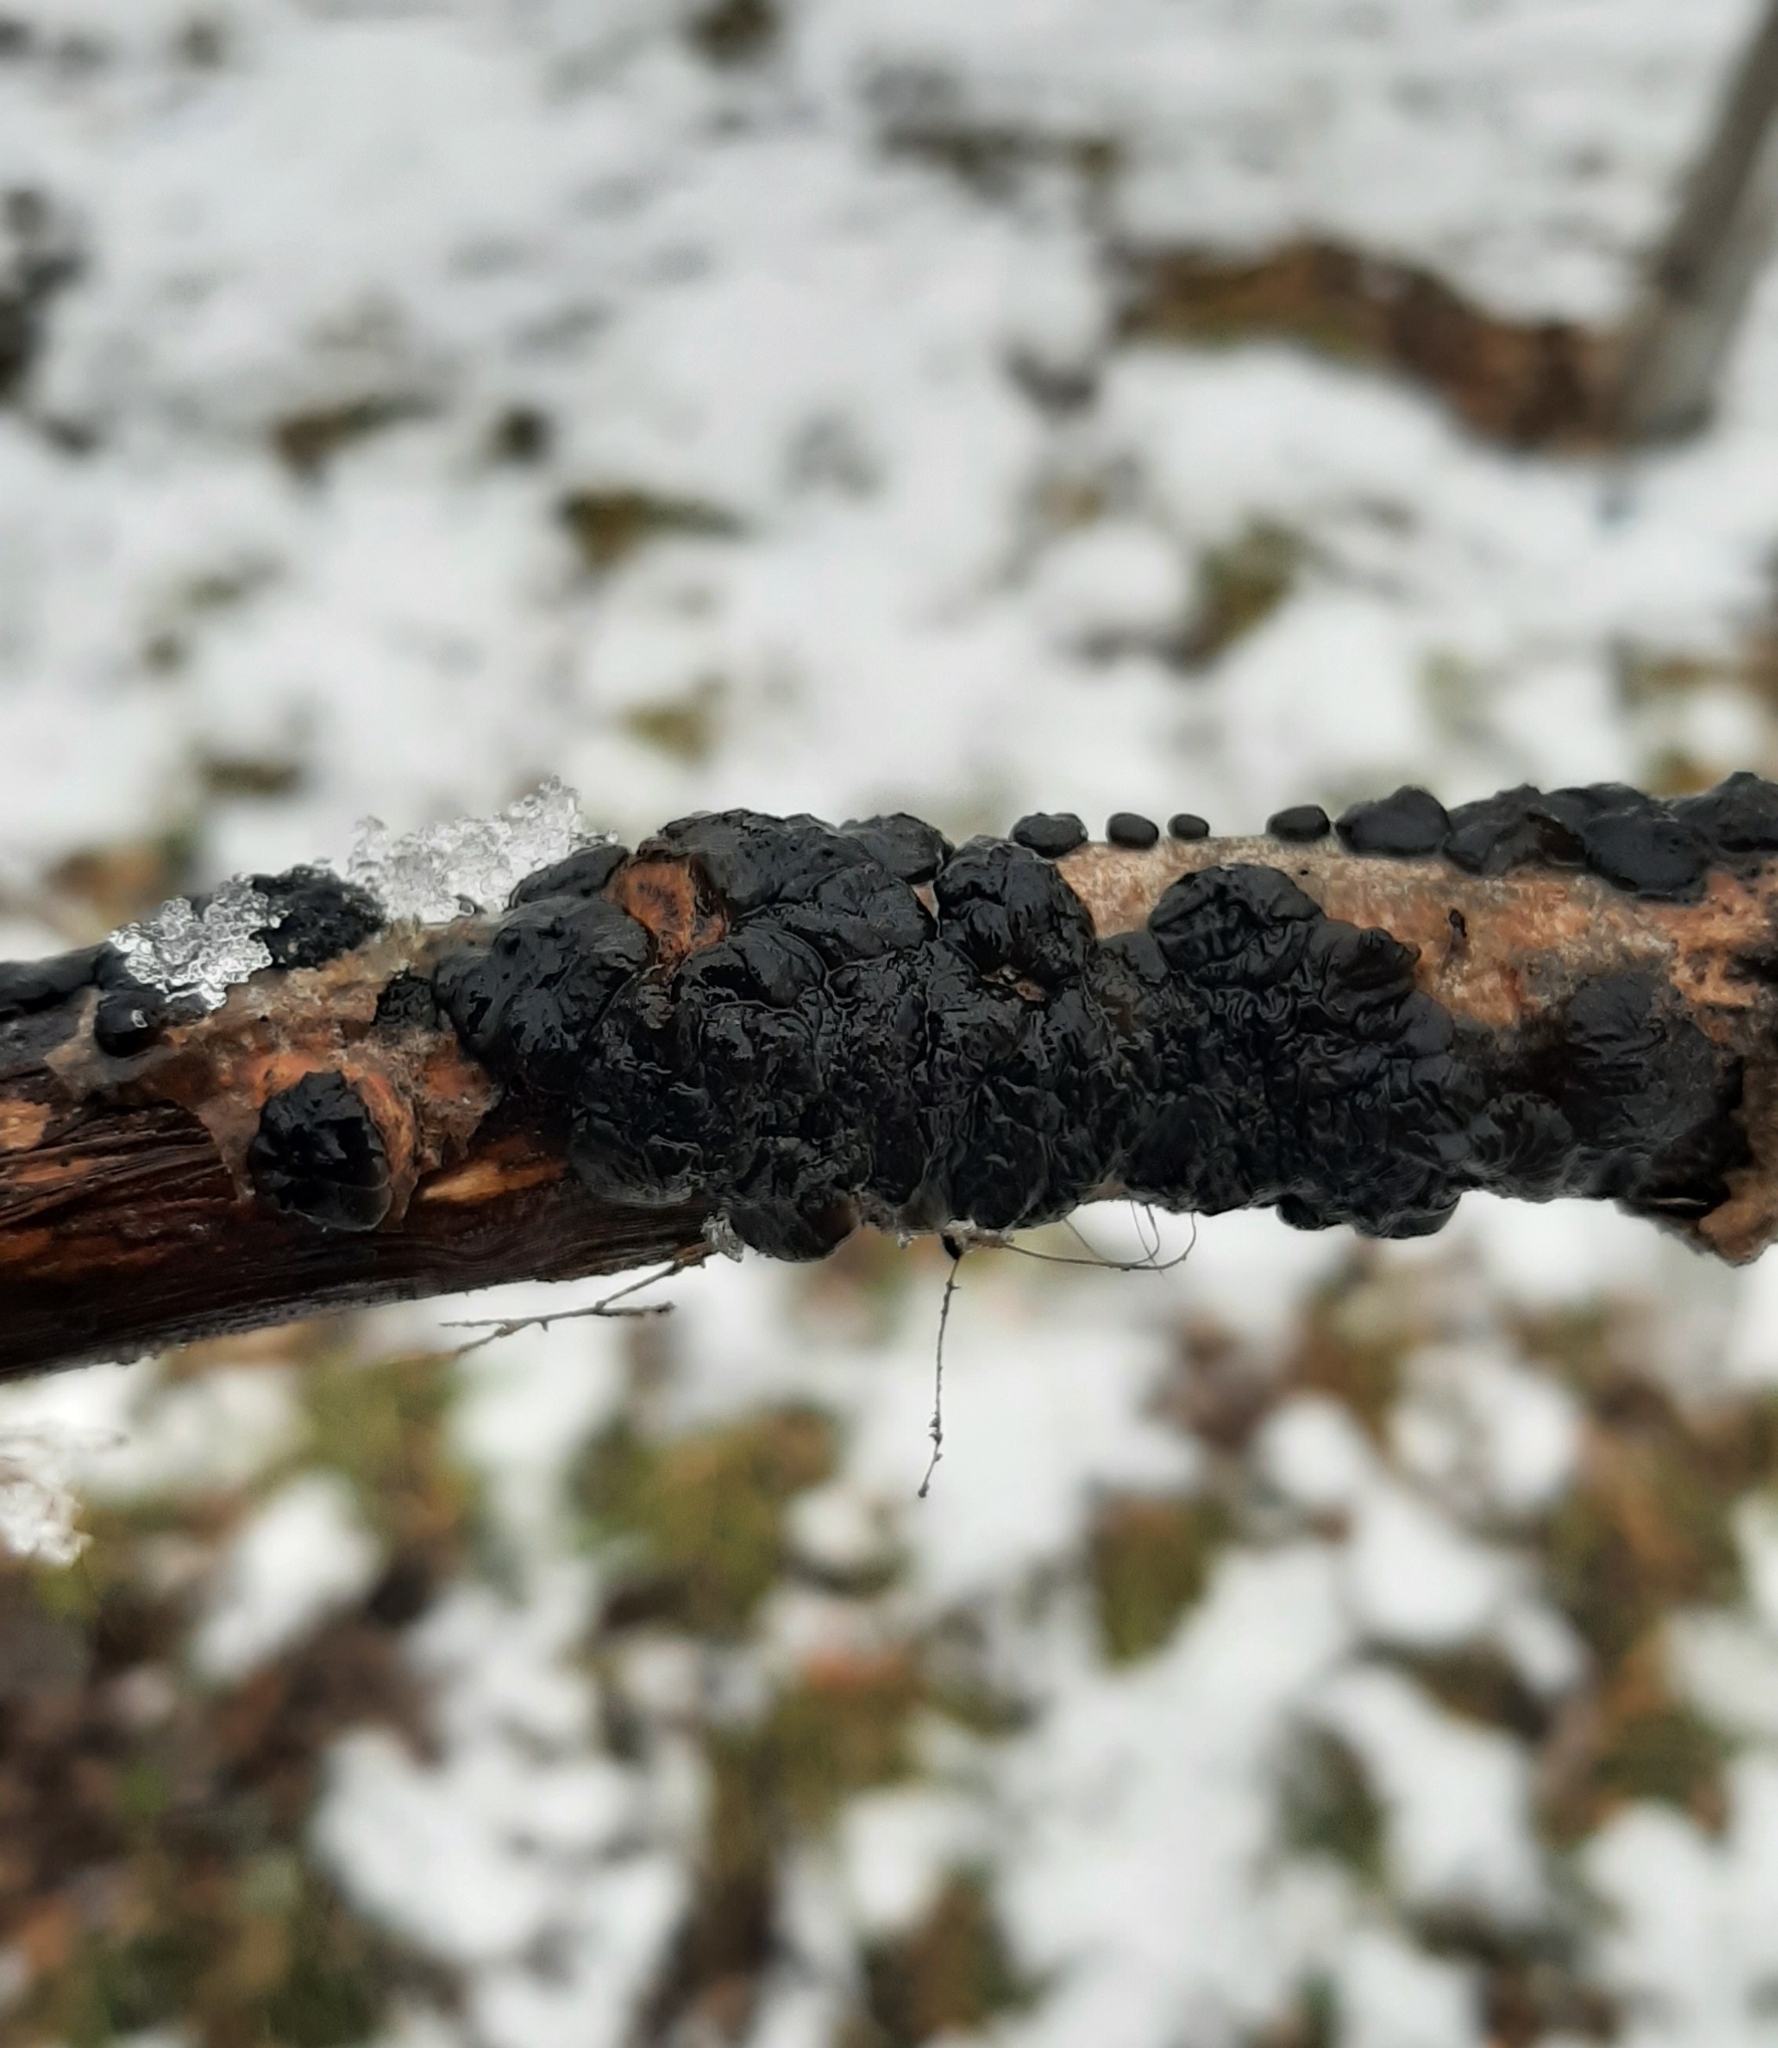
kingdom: Fungi
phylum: Basidiomycota
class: Agaricomycetes
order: Auriculariales
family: Auriculariaceae
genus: Exidia
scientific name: Exidia glandulosa
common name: Witches' butter
